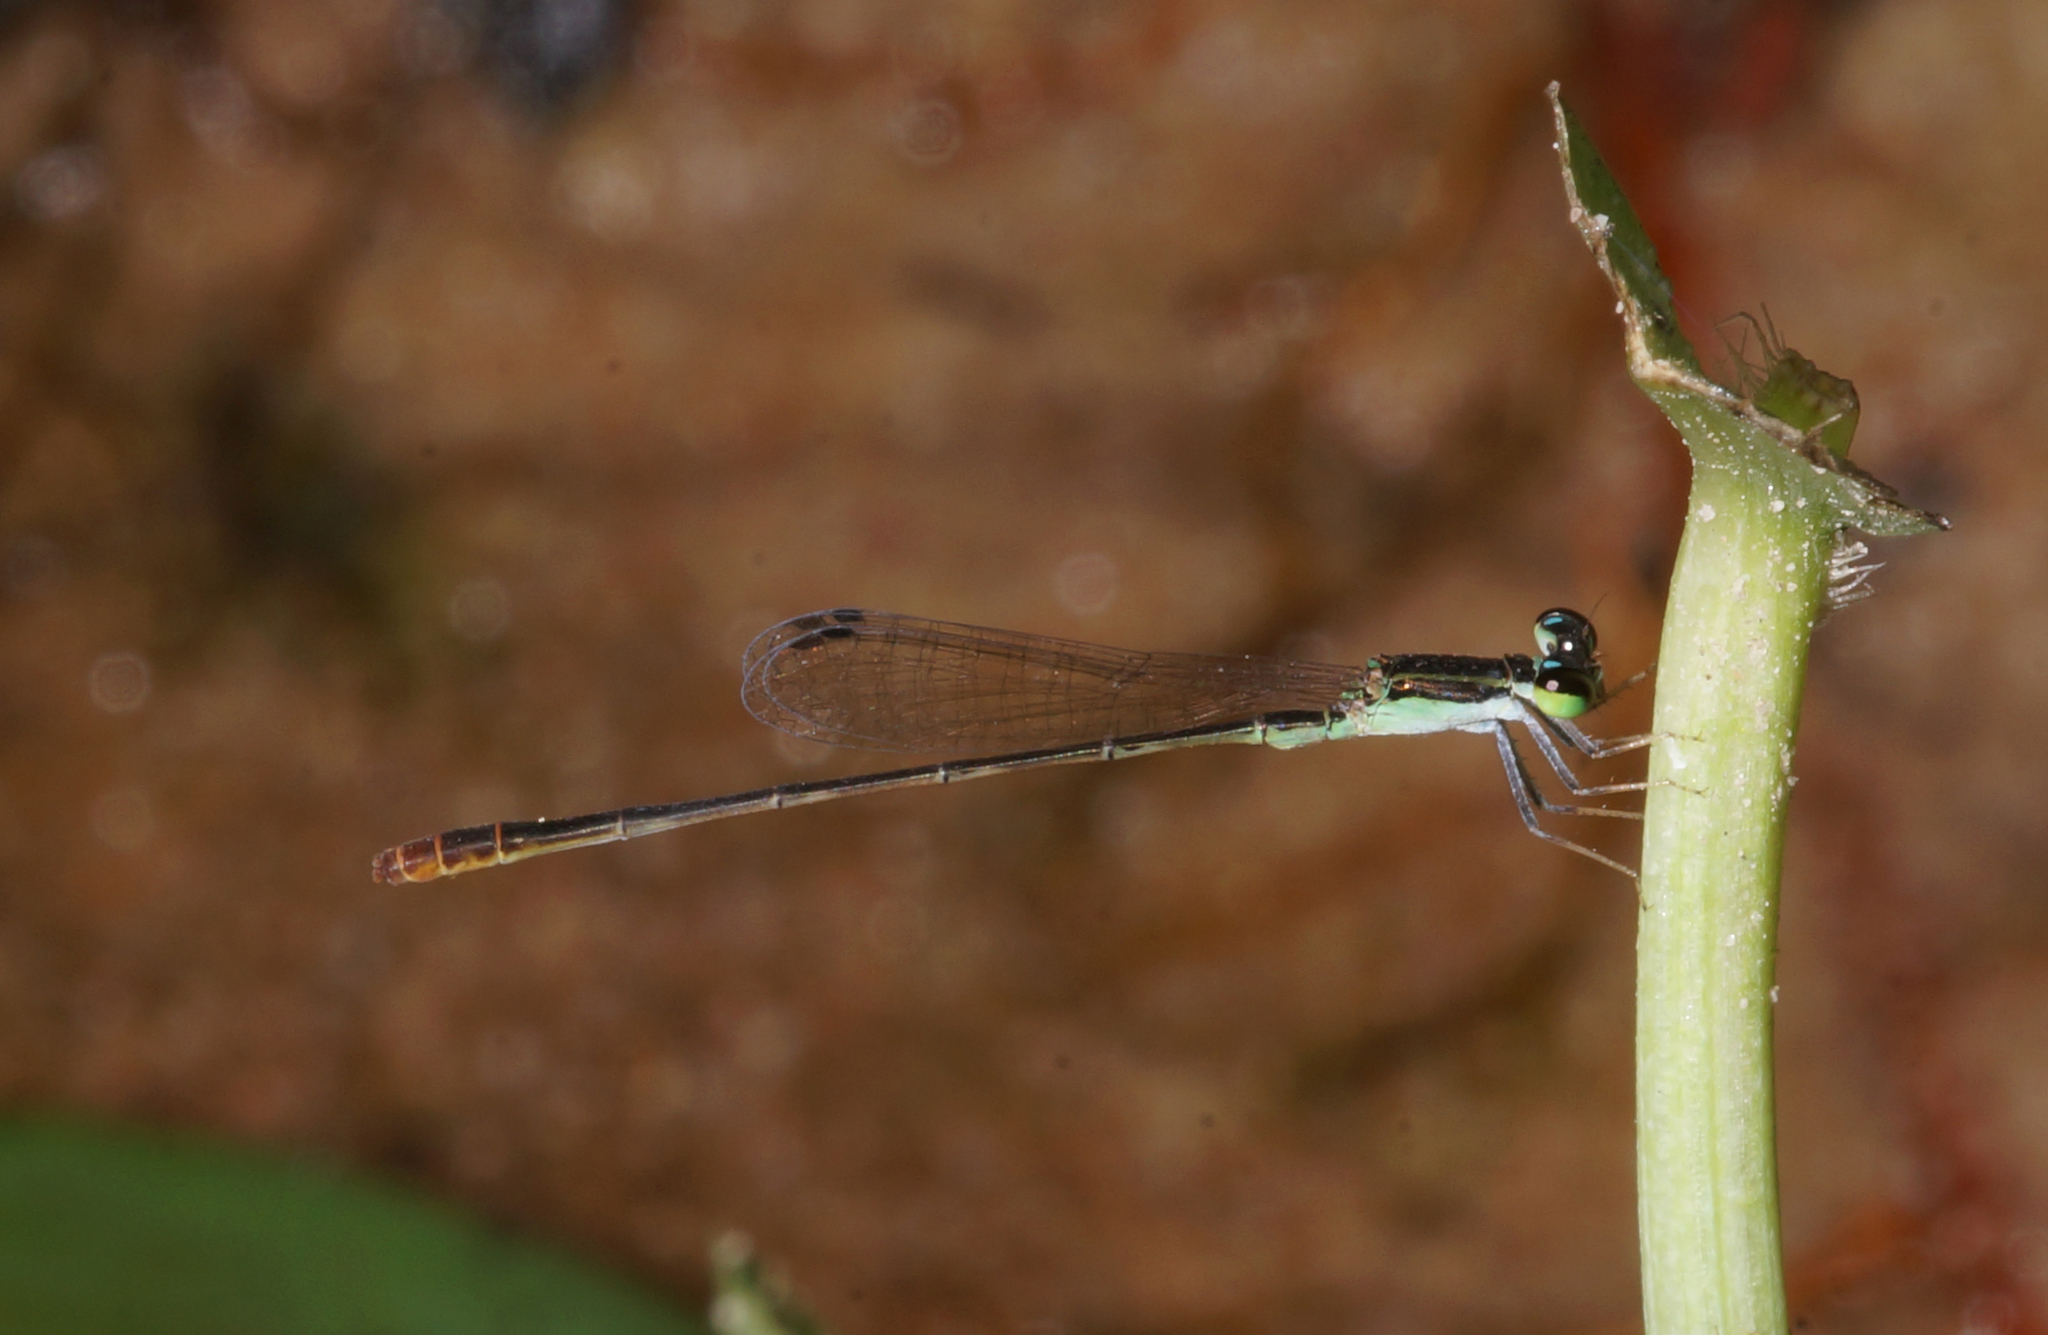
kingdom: Animalia
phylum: Arthropoda
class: Insecta
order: Odonata
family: Coenagrionidae
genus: Agriocnemis
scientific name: Agriocnemis pygmaea
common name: Pygmy wisp
